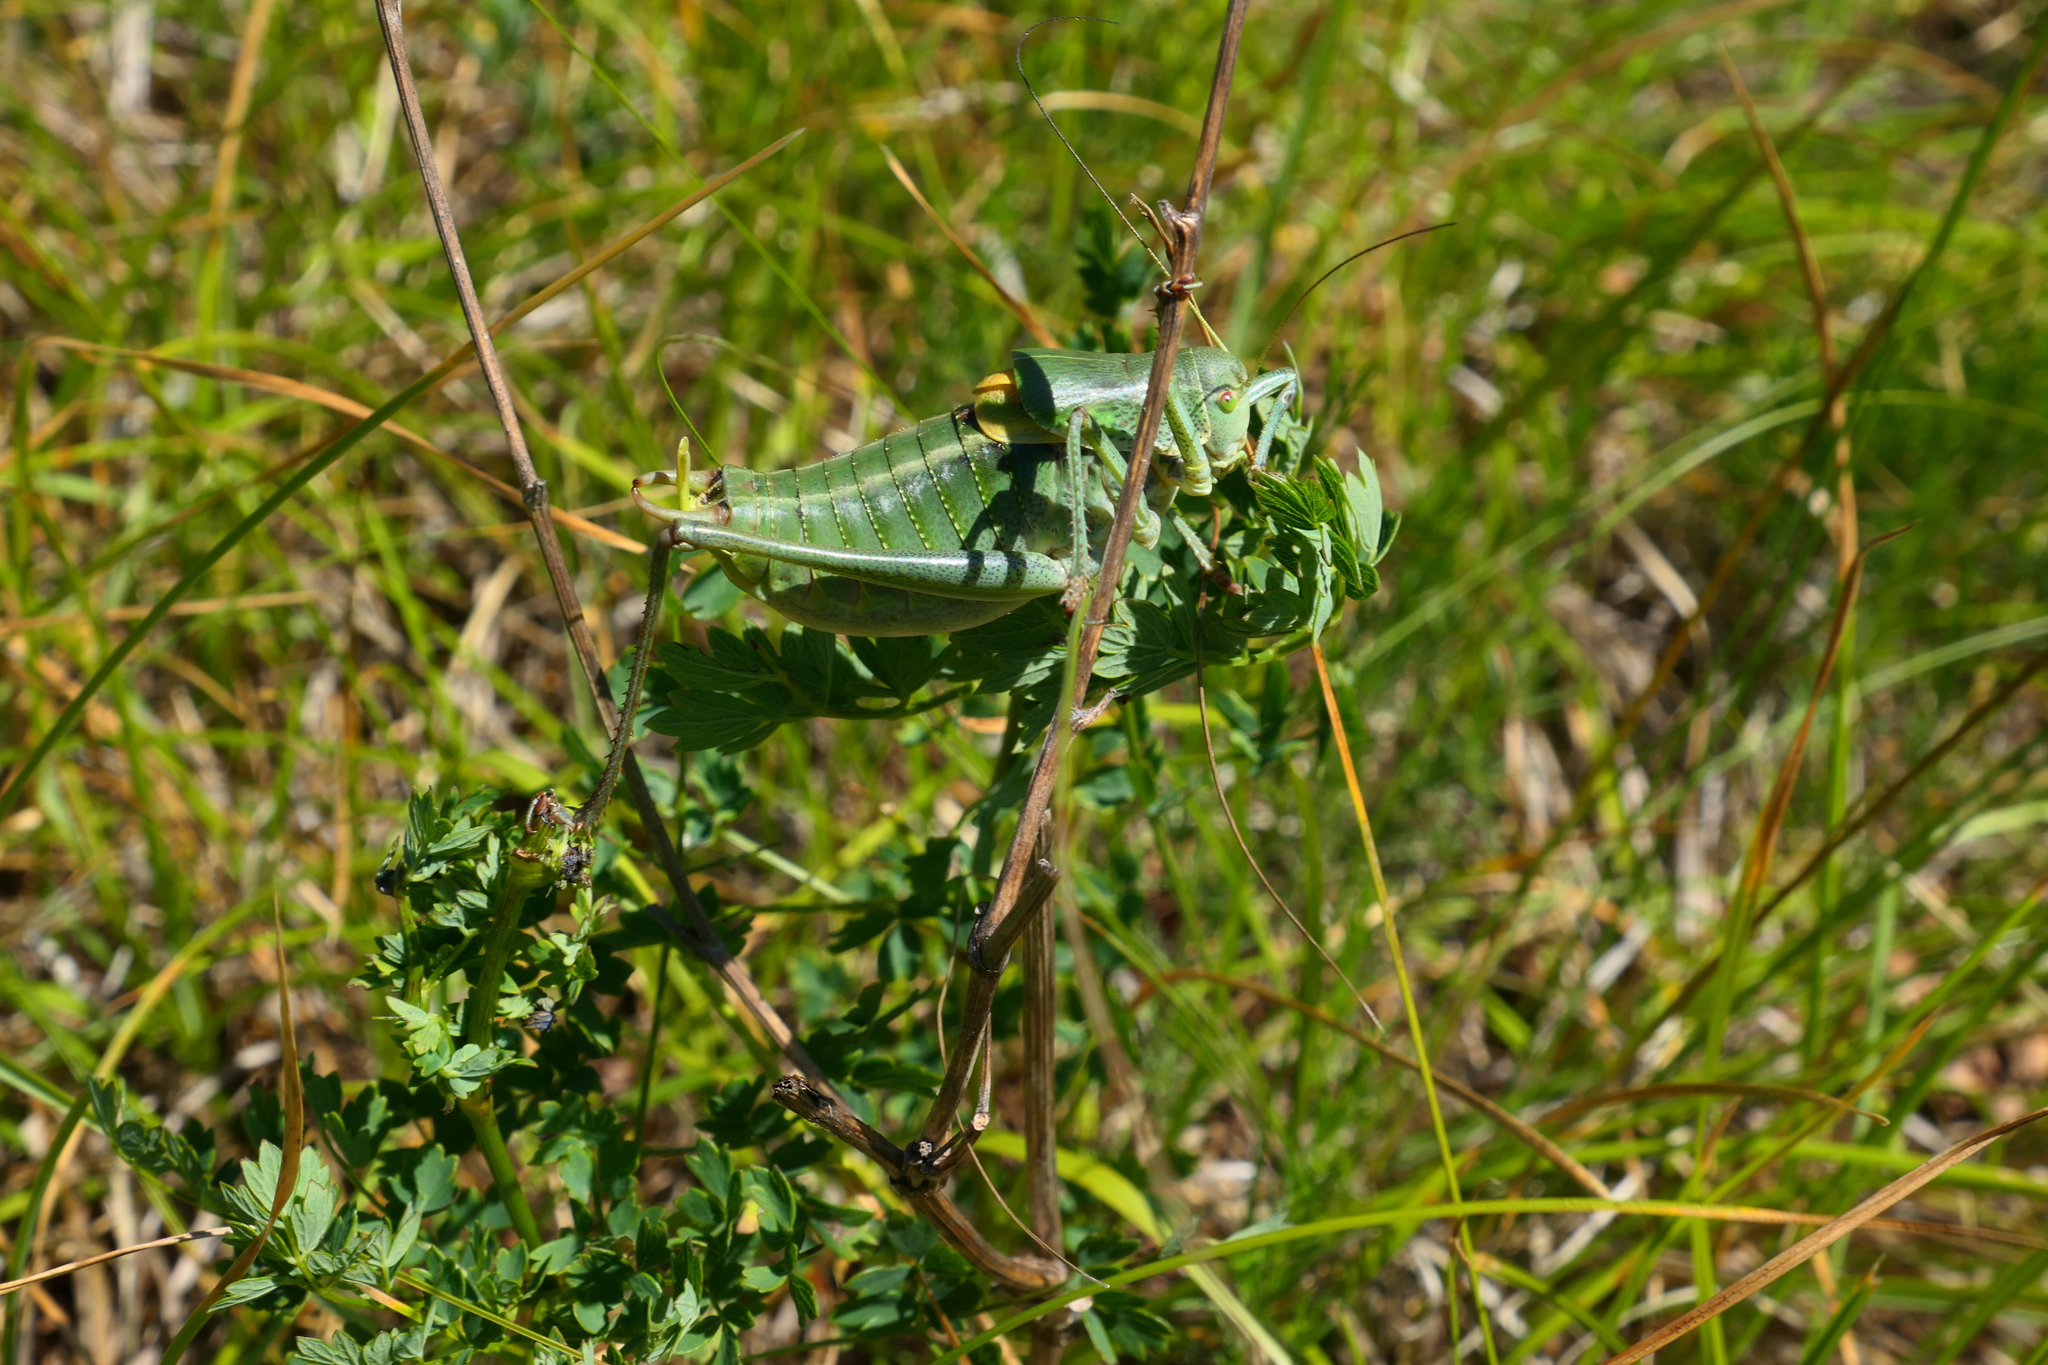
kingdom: Animalia
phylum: Arthropoda
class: Insecta
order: Orthoptera
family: Tettigoniidae
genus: Polysarcus
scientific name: Polysarcus denticauda
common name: Large saw-tailed bush-cricket
